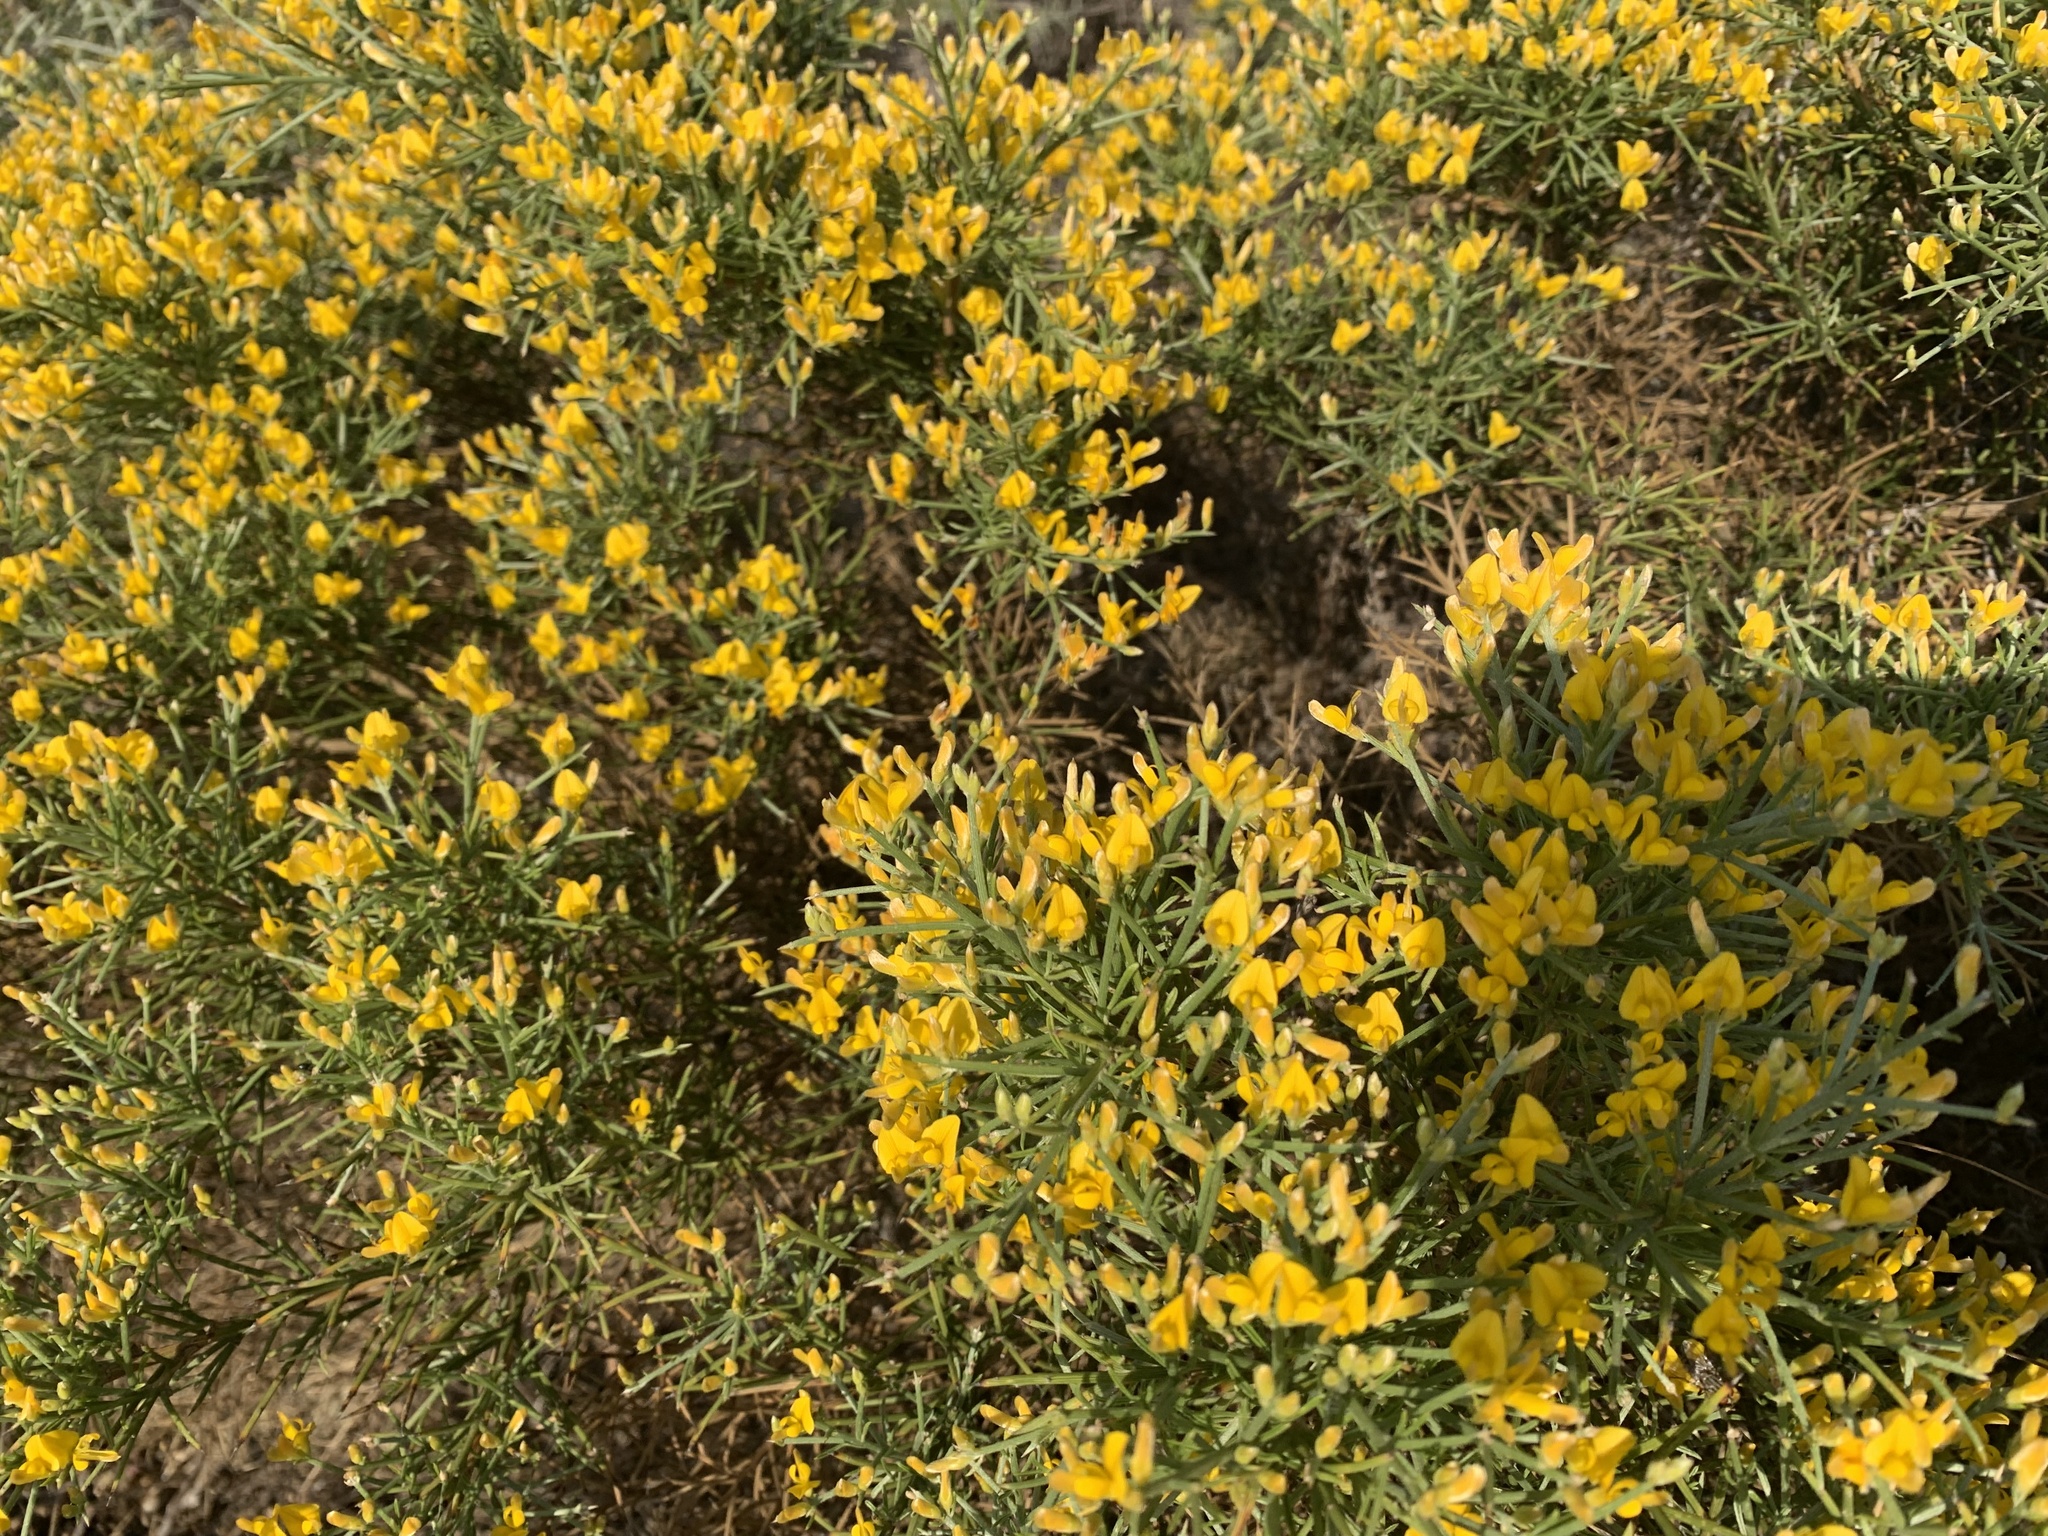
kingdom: Plantae
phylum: Tracheophyta
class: Magnoliopsida
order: Fabales
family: Fabaceae
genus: Genista
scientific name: Genista acanthoclada
